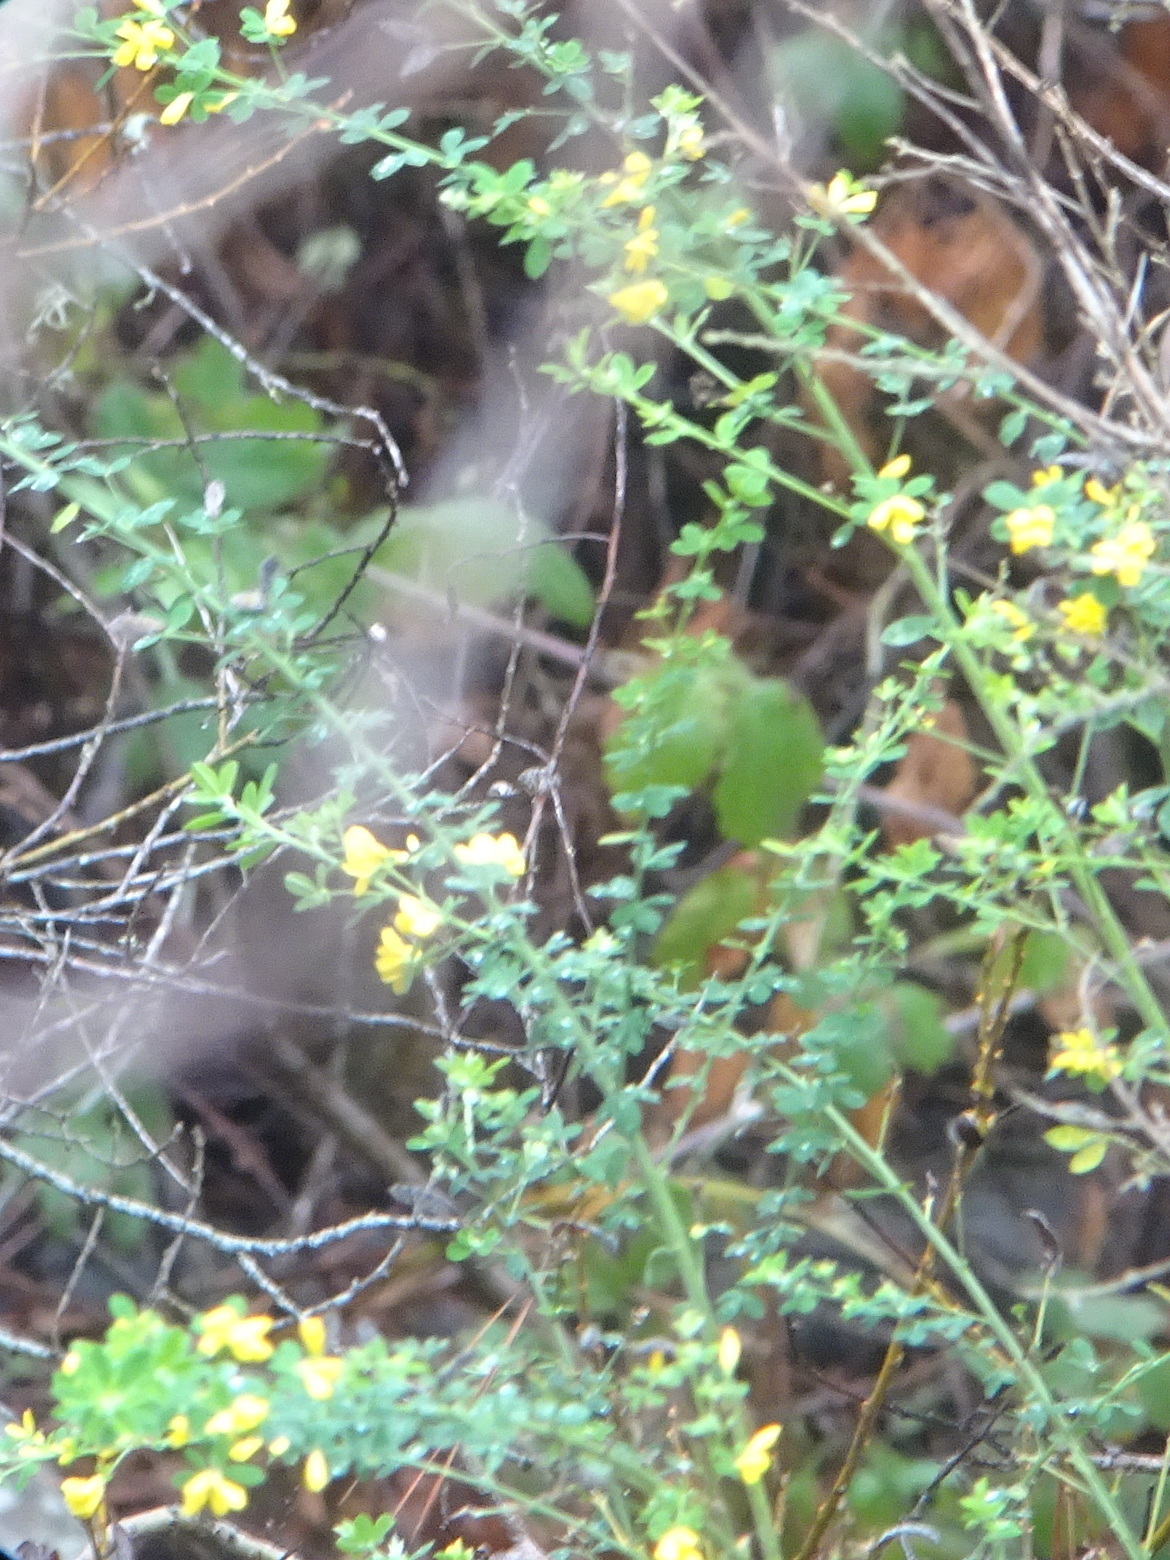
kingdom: Plantae
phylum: Tracheophyta
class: Magnoliopsida
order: Fabales
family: Fabaceae
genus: Genista
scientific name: Genista monspessulana
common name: Montpellier broom
